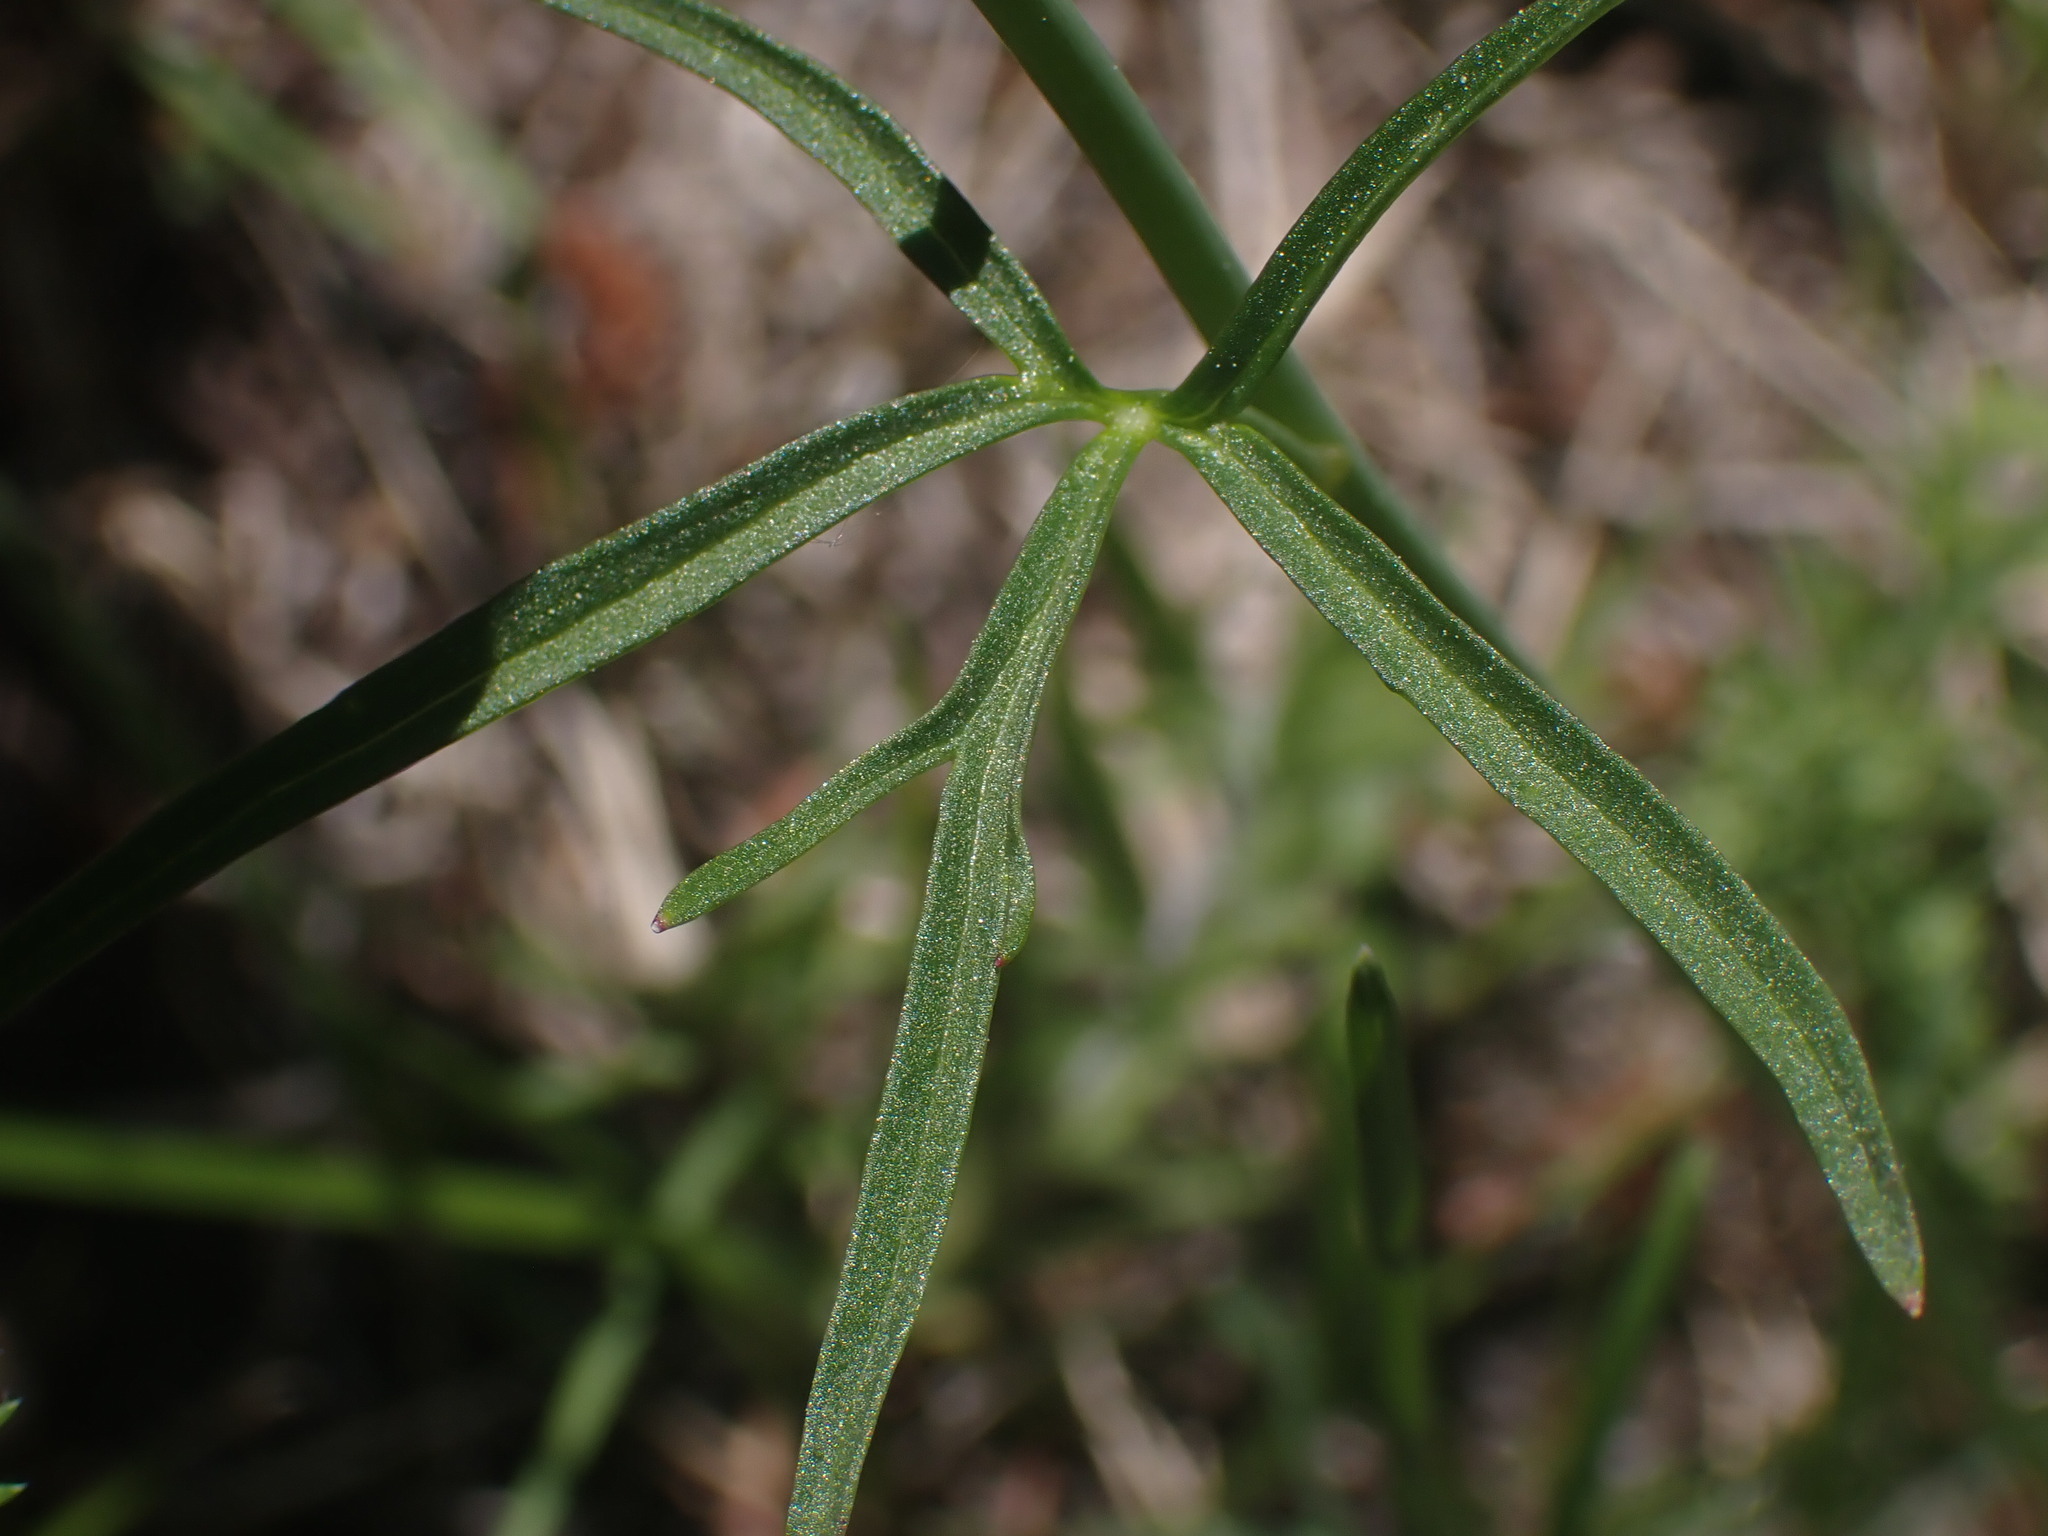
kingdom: Plantae
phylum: Tracheophyta
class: Magnoliopsida
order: Ranunculales
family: Ranunculaceae
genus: Delphinium
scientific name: Delphinium nuttallianum
